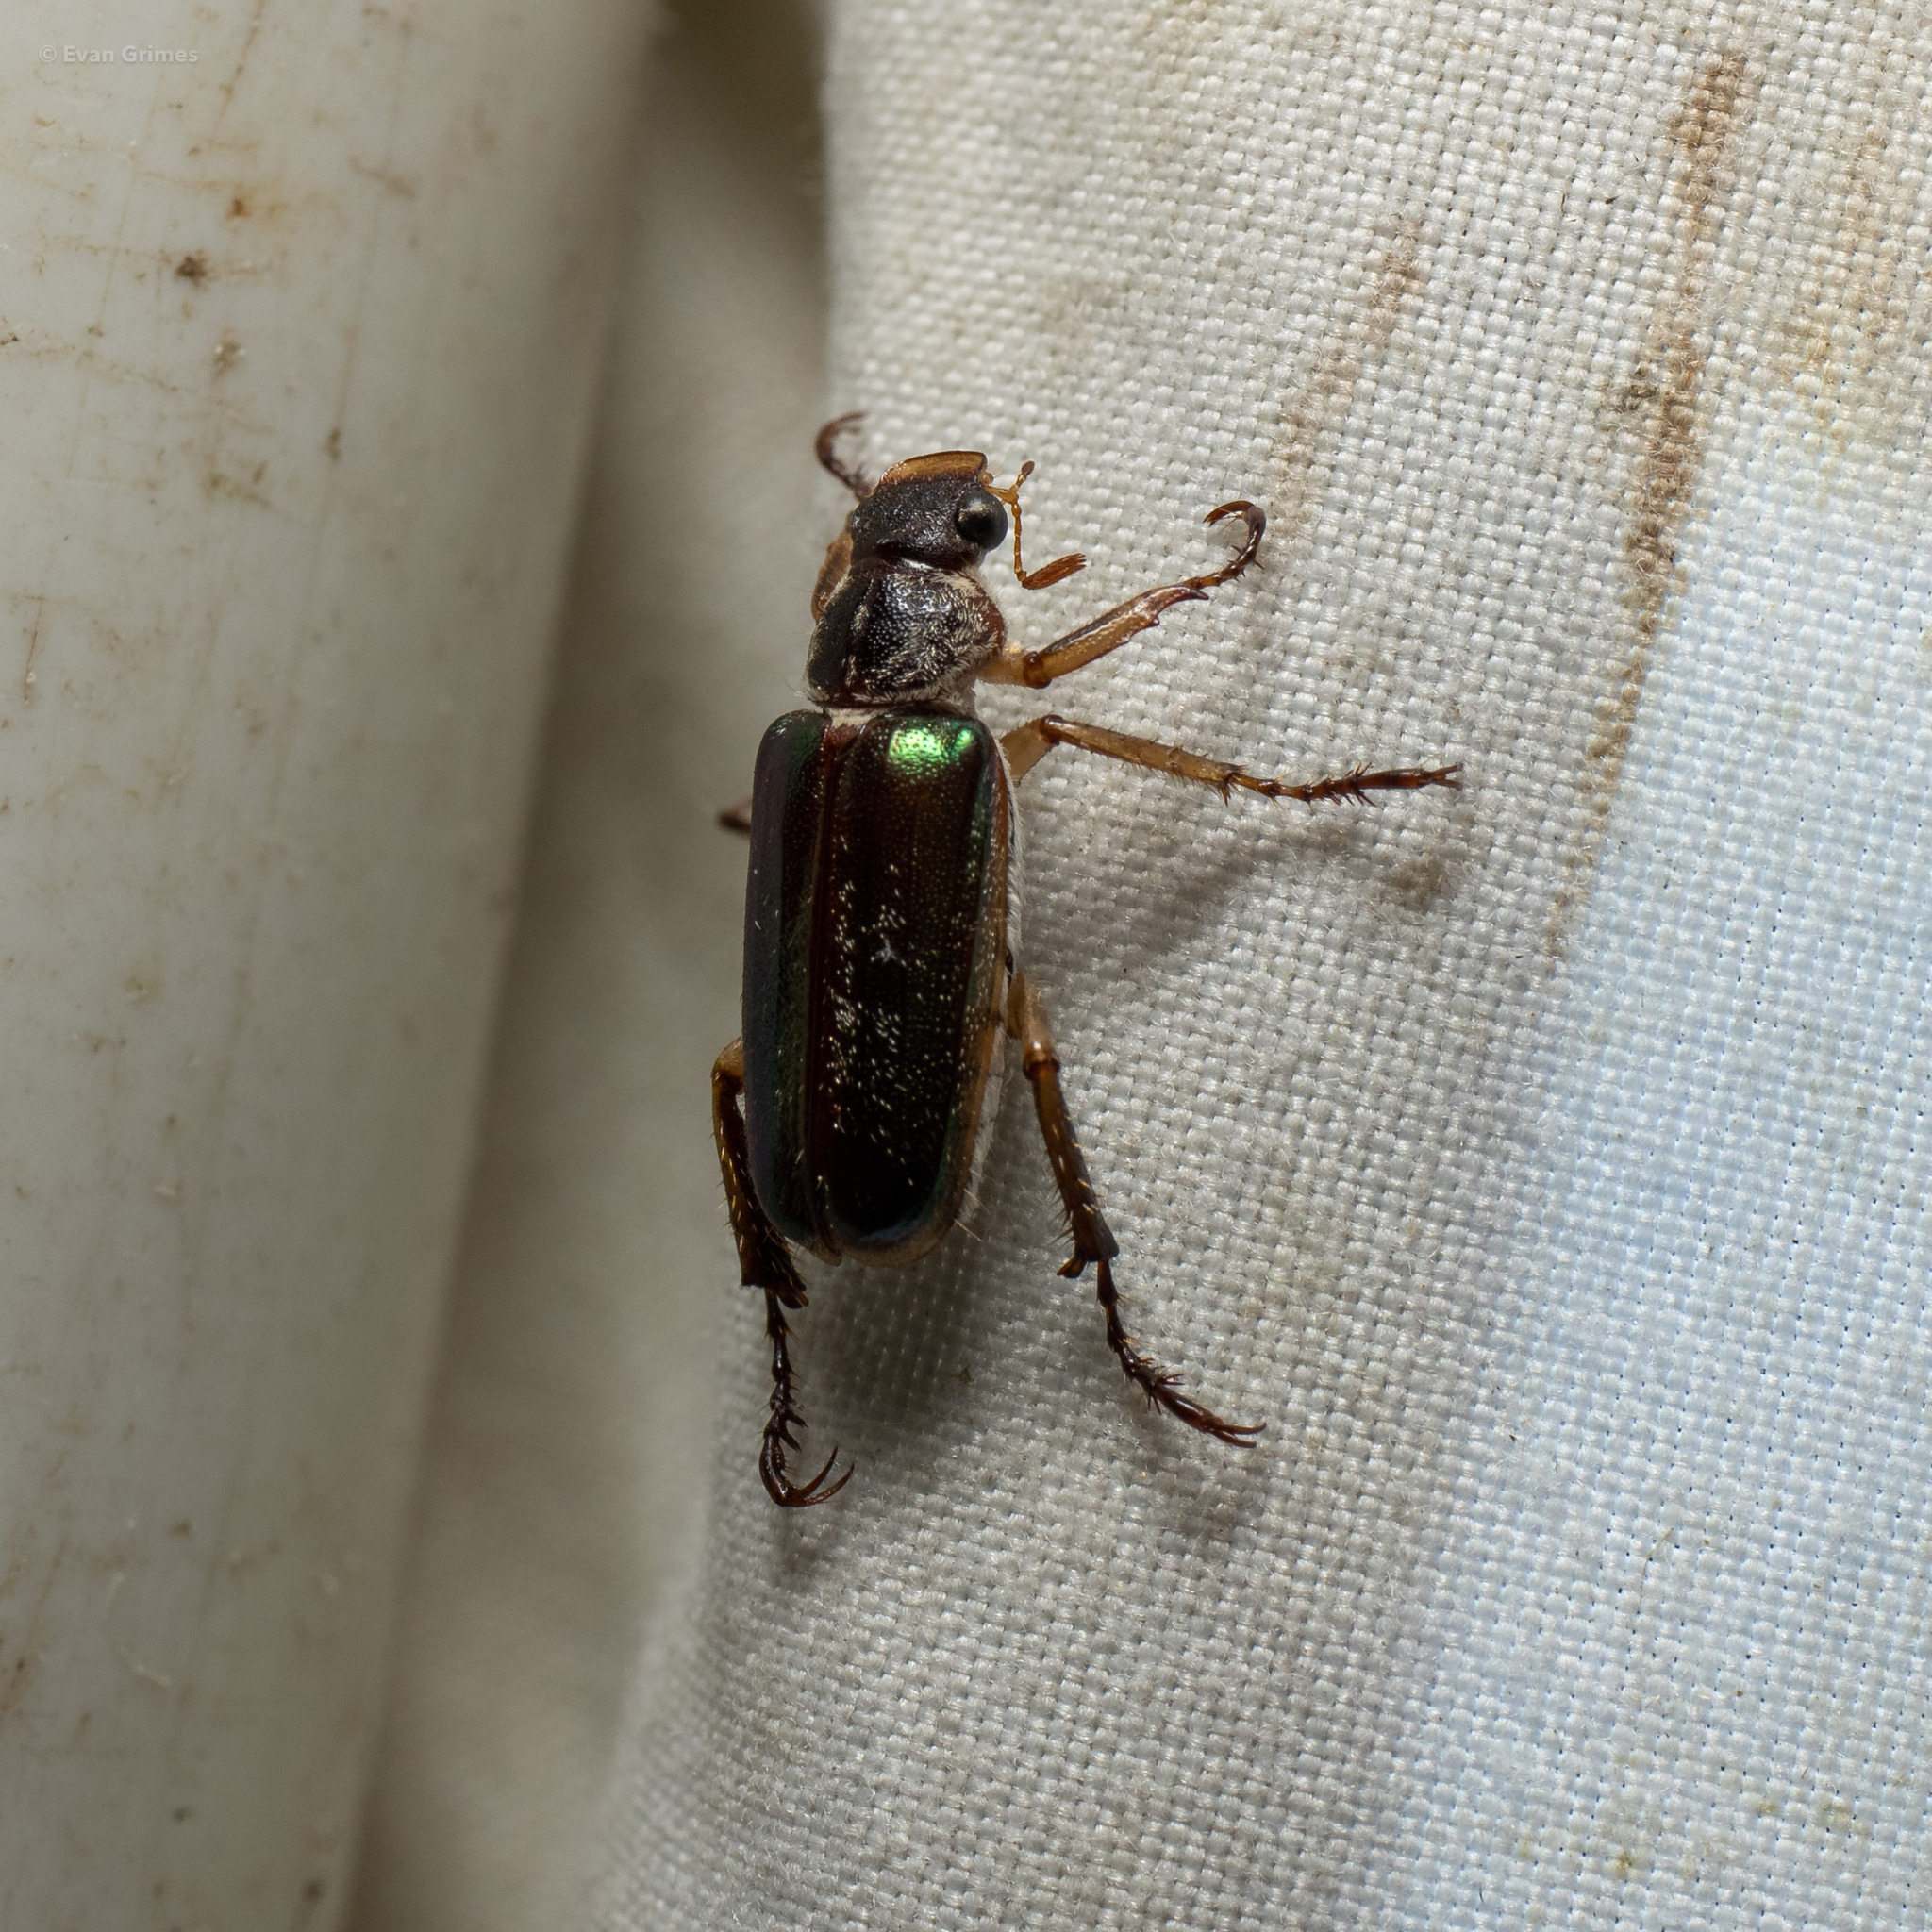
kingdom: Animalia
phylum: Arthropoda
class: Insecta
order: Coleoptera
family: Scarabaeidae
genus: Dichelonyx
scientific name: Dichelonyx albicollis
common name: White-necked pine-beetle
